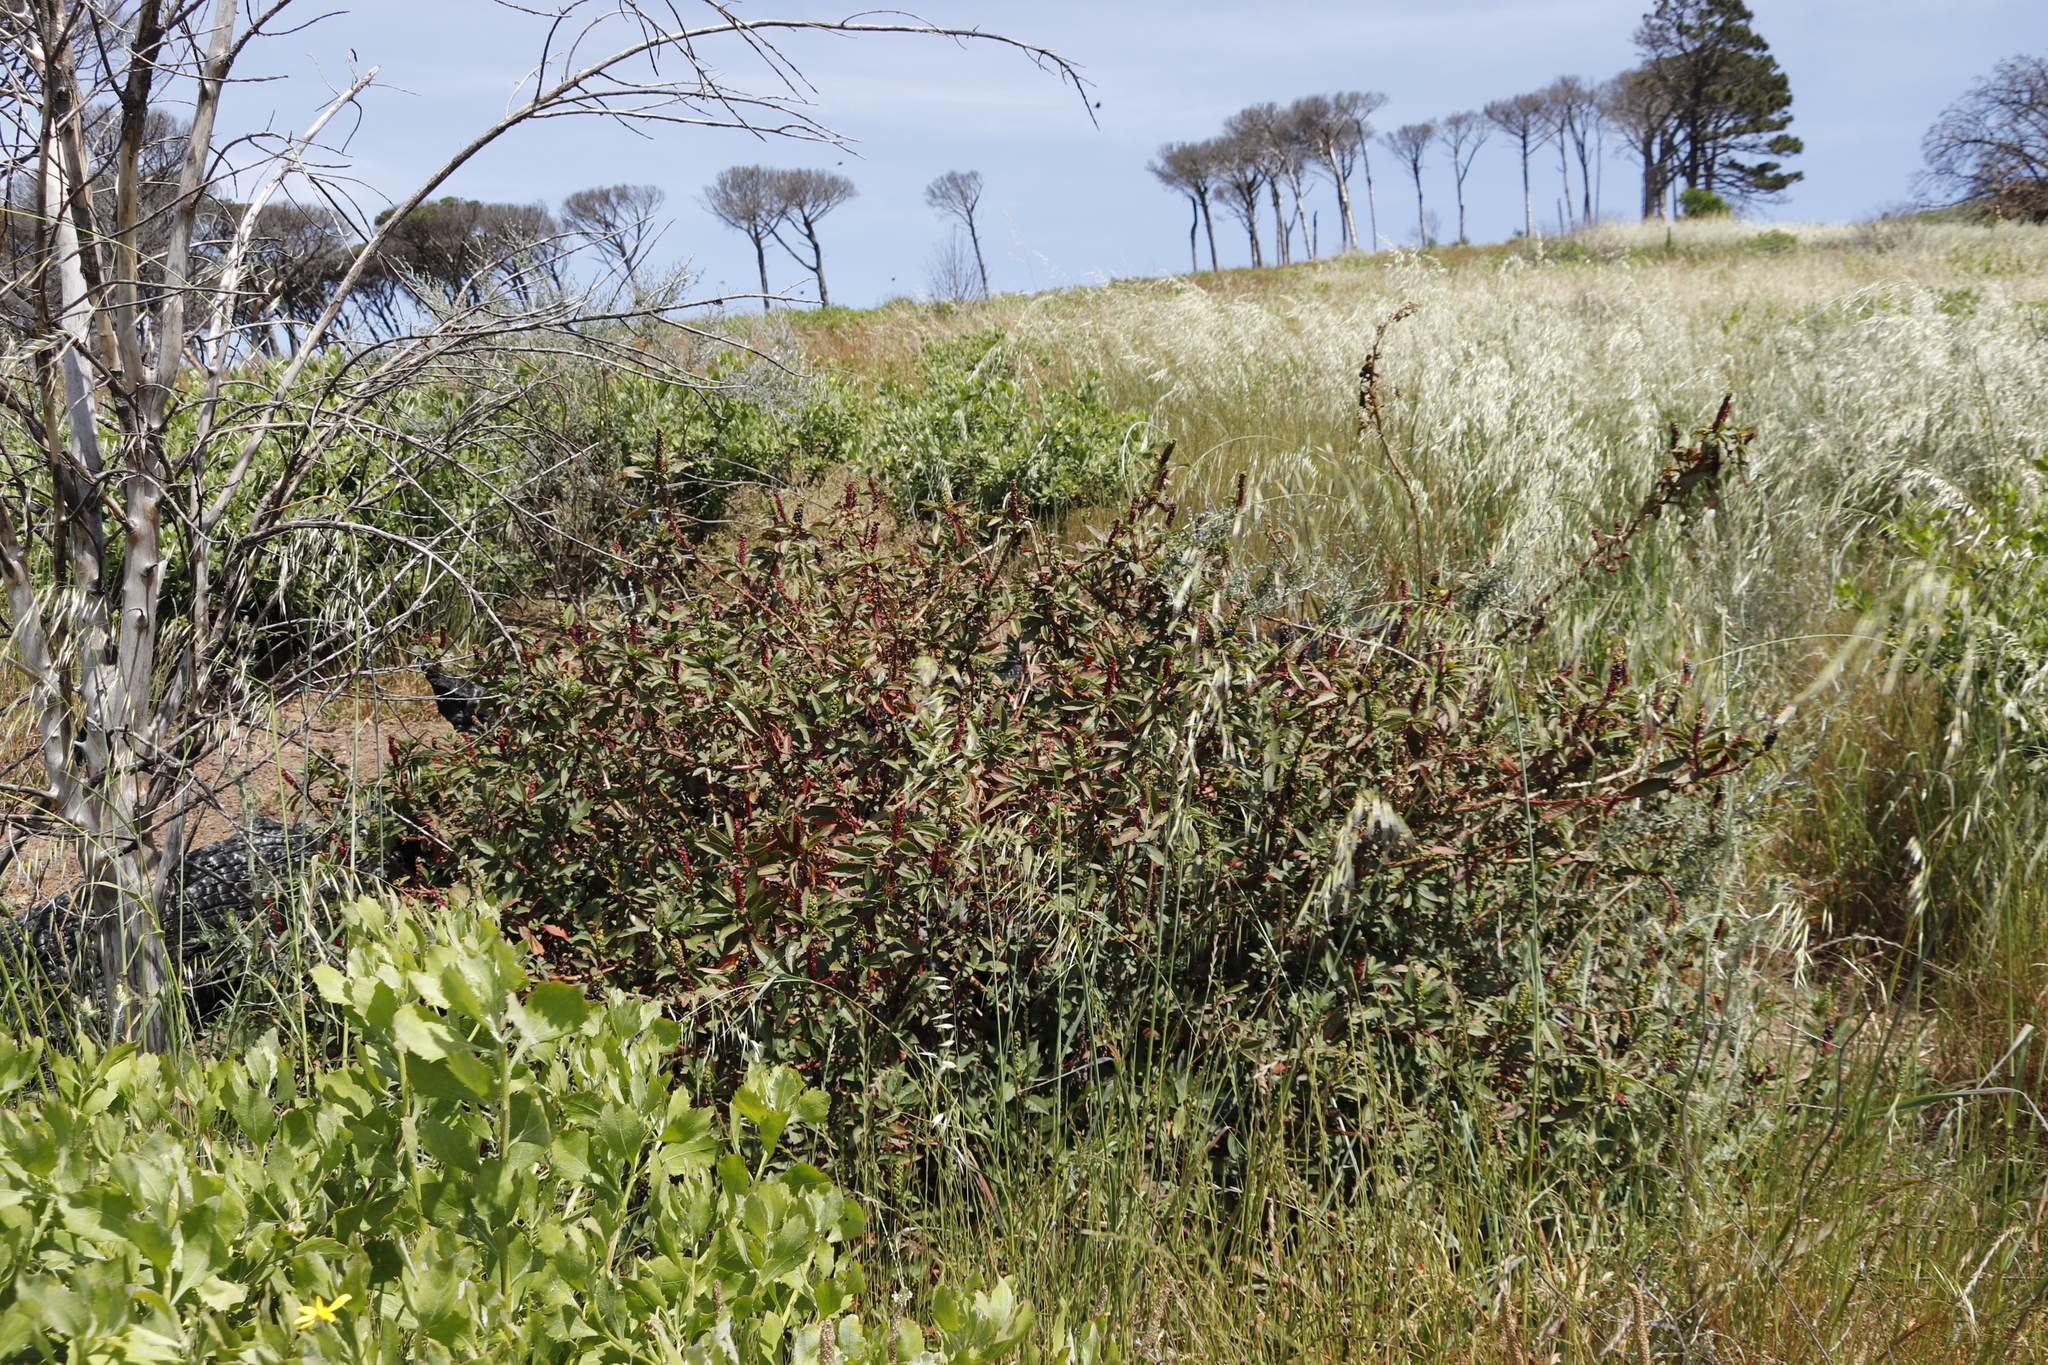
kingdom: Plantae
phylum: Tracheophyta
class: Magnoliopsida
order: Caryophyllales
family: Phytolaccaceae
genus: Phytolacca
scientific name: Phytolacca icosandra
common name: Button pokeweed
